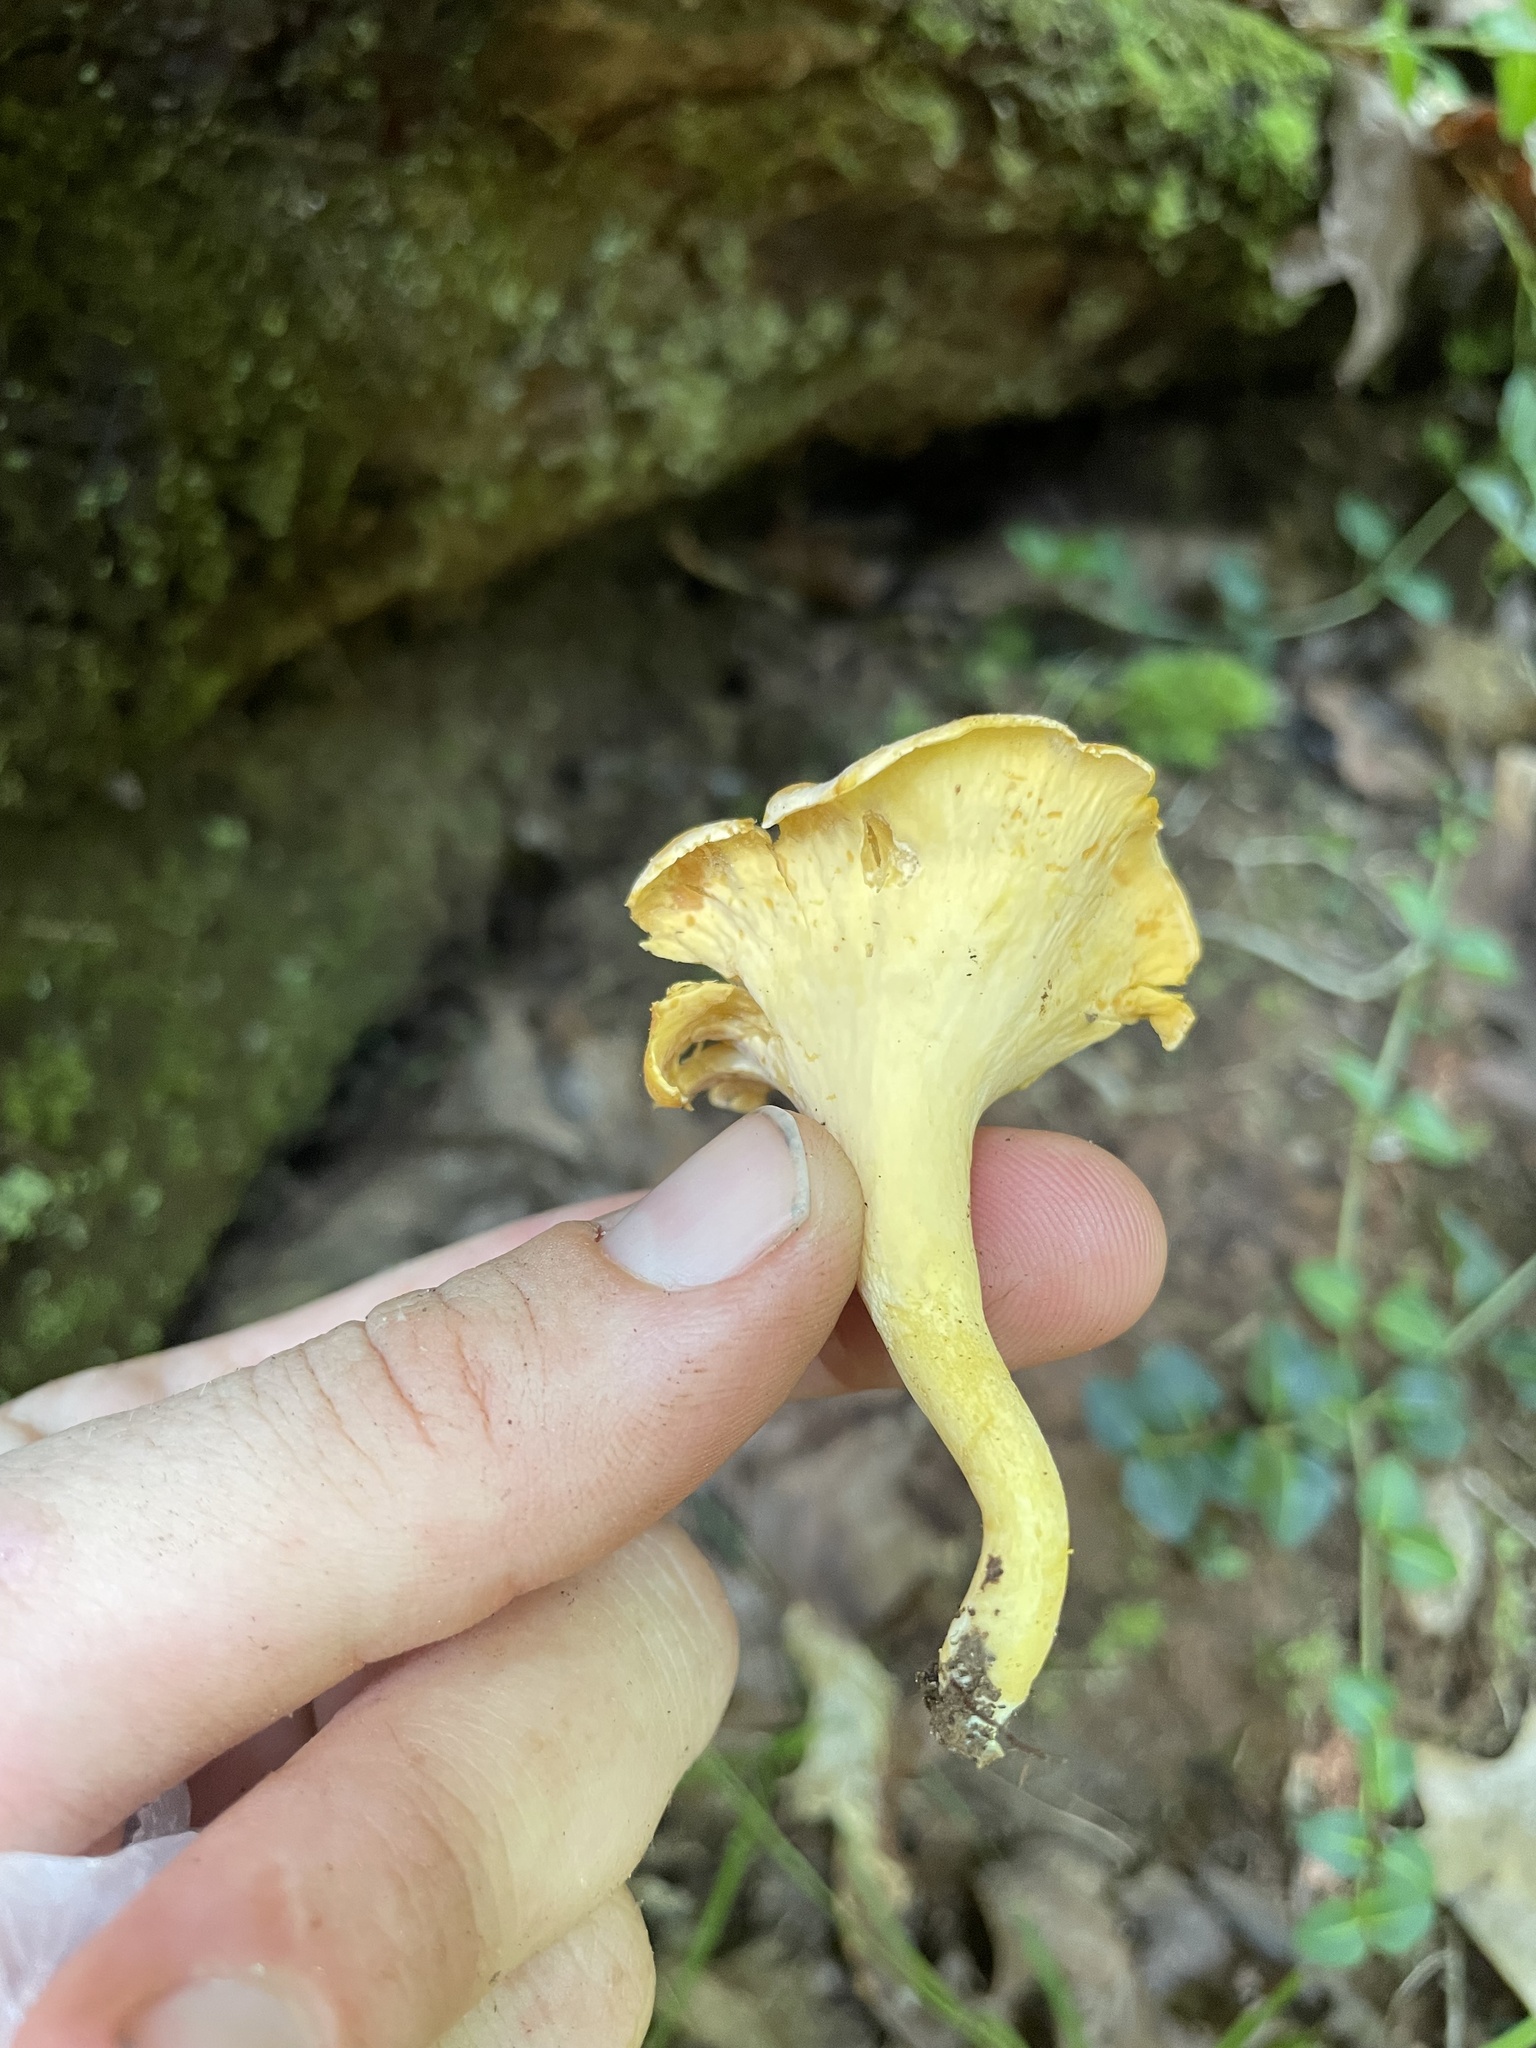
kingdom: Fungi
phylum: Basidiomycota
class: Agaricomycetes
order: Cantharellales
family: Hydnaceae
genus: Cantharellus
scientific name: Cantharellus flavolateritius
